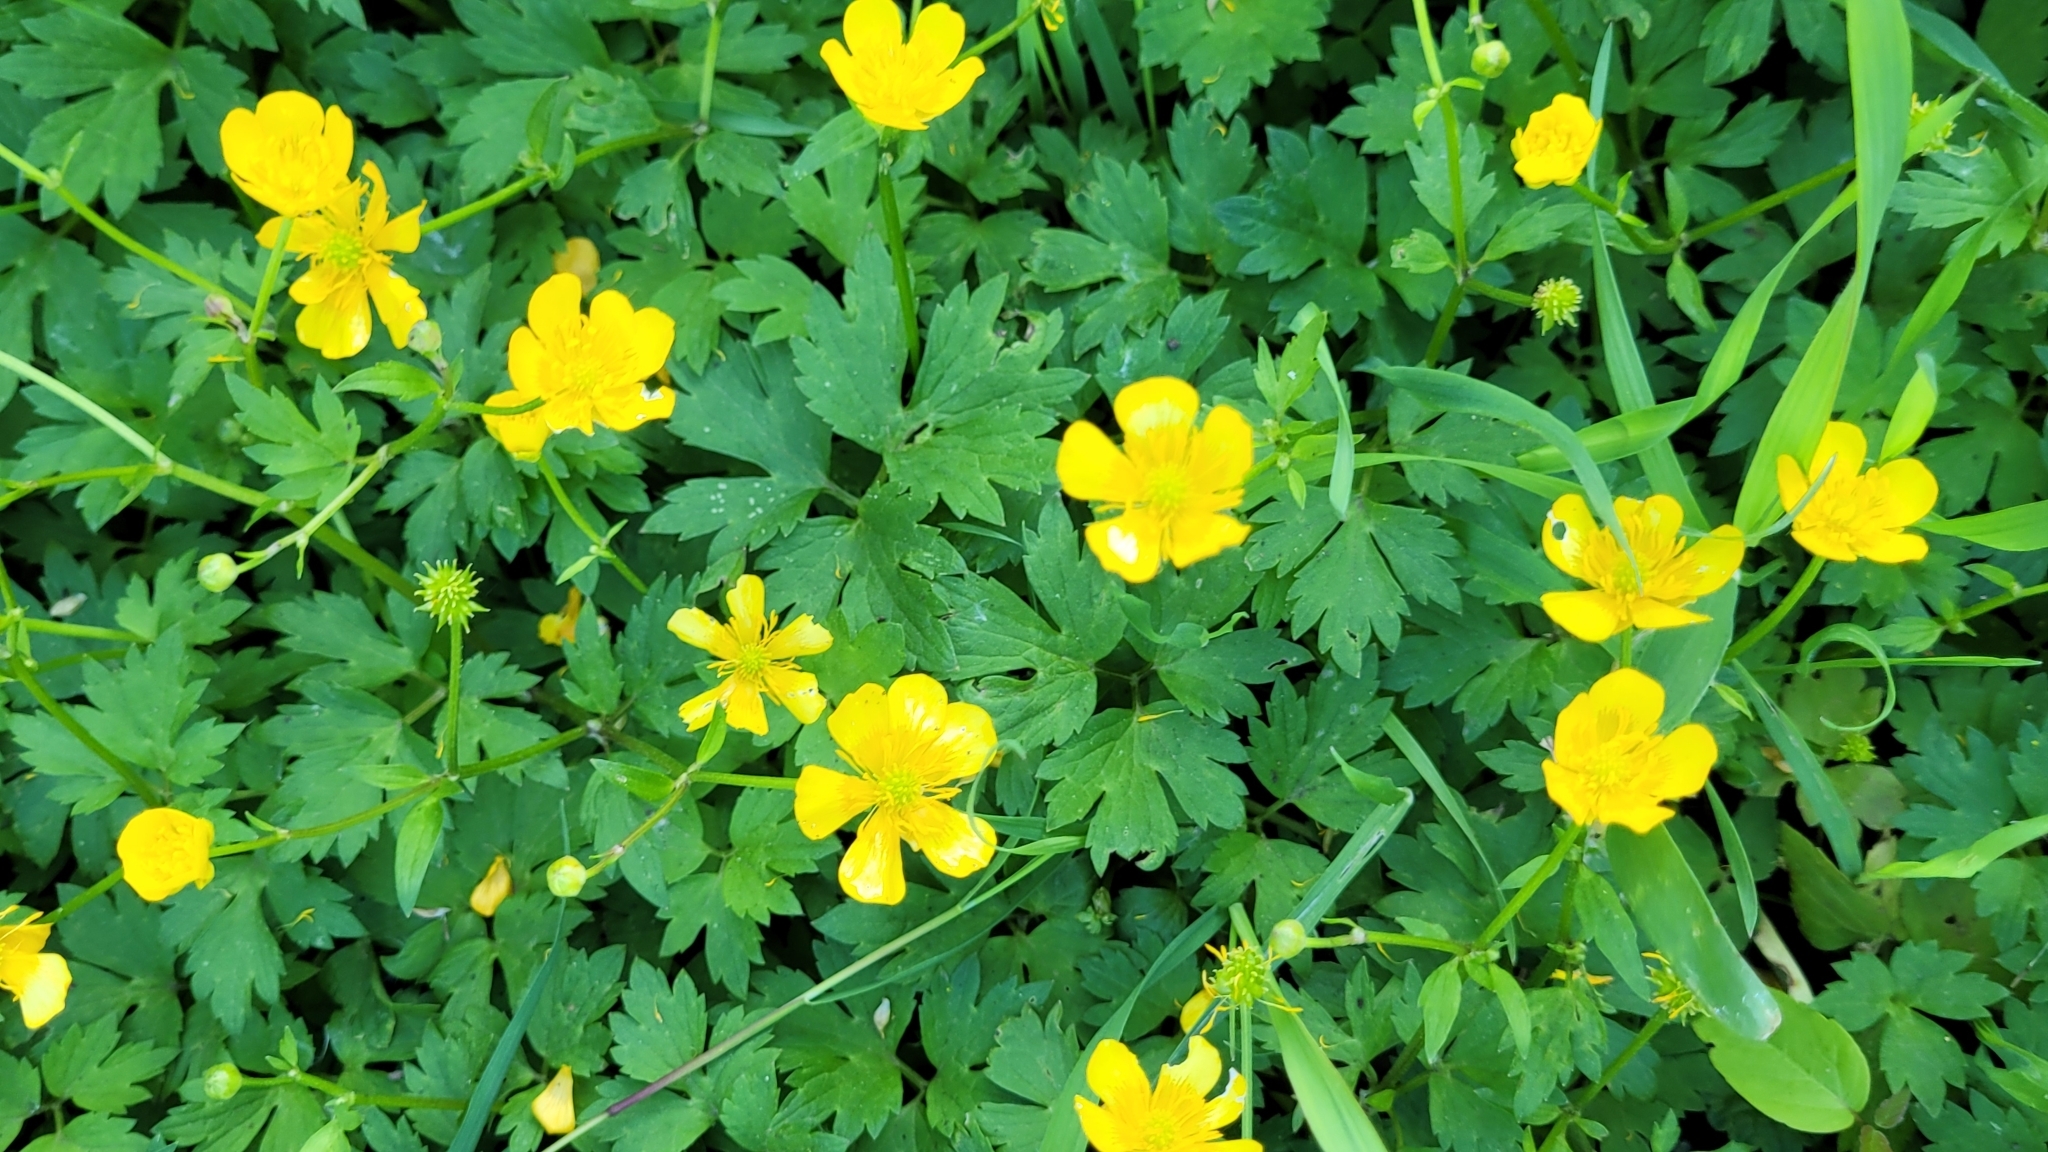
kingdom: Plantae
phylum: Tracheophyta
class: Magnoliopsida
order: Ranunculales
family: Ranunculaceae
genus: Ranunculus
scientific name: Ranunculus repens
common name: Creeping buttercup
